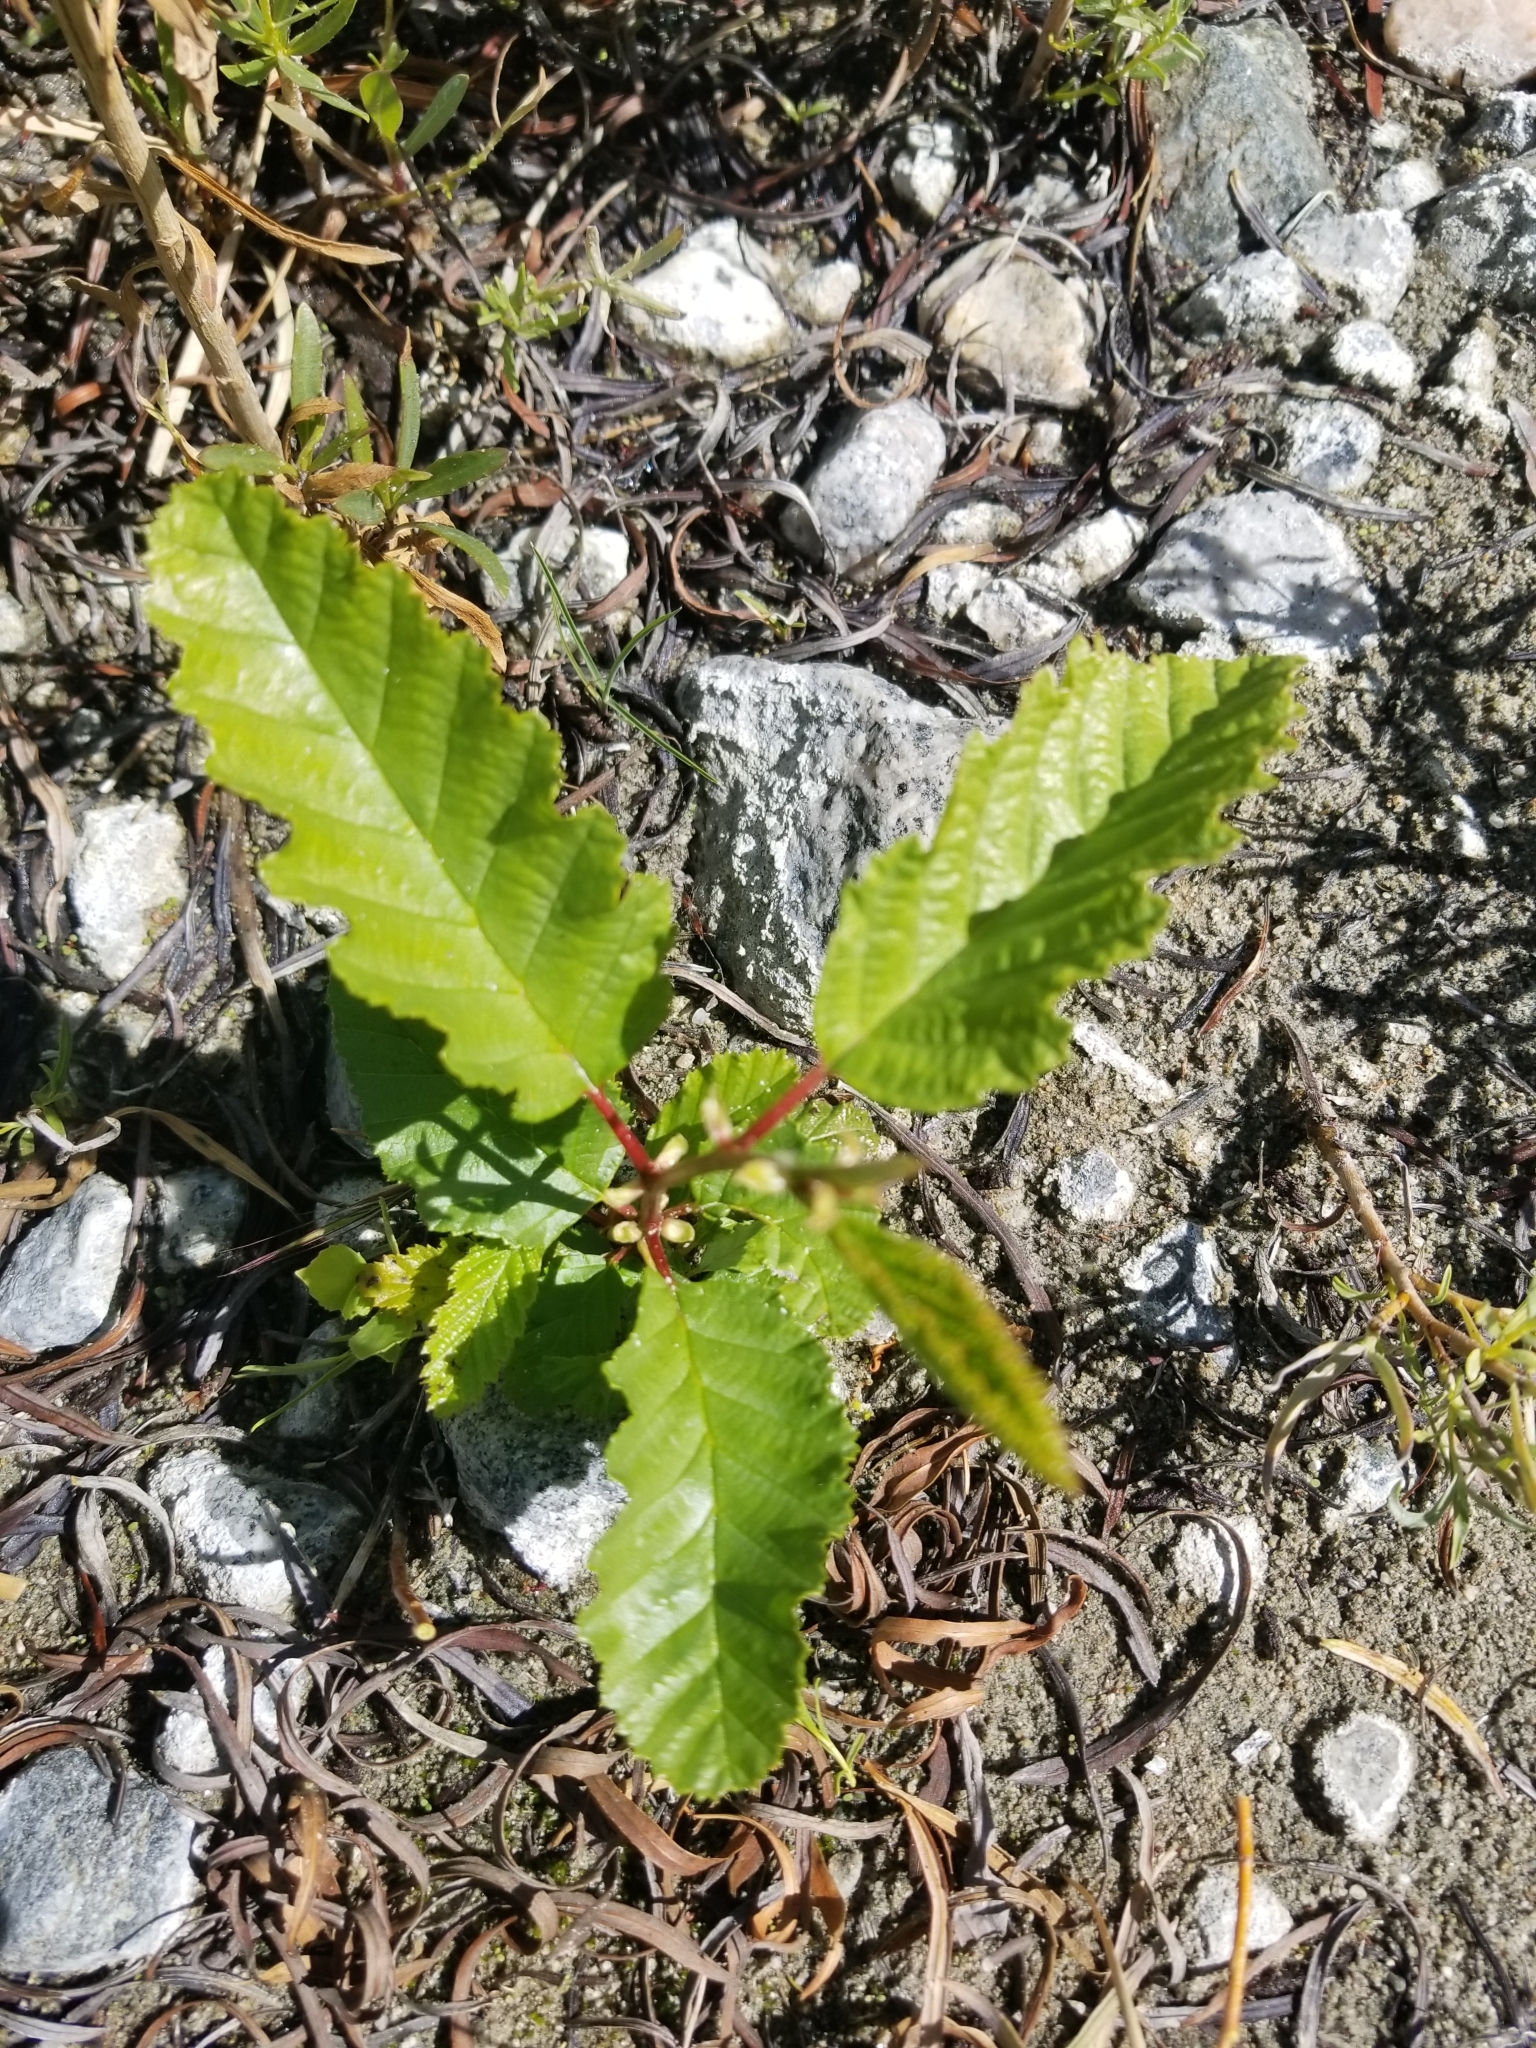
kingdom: Plantae
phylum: Tracheophyta
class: Magnoliopsida
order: Fagales
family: Betulaceae
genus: Alnus
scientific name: Alnus rhombifolia
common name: California alder
